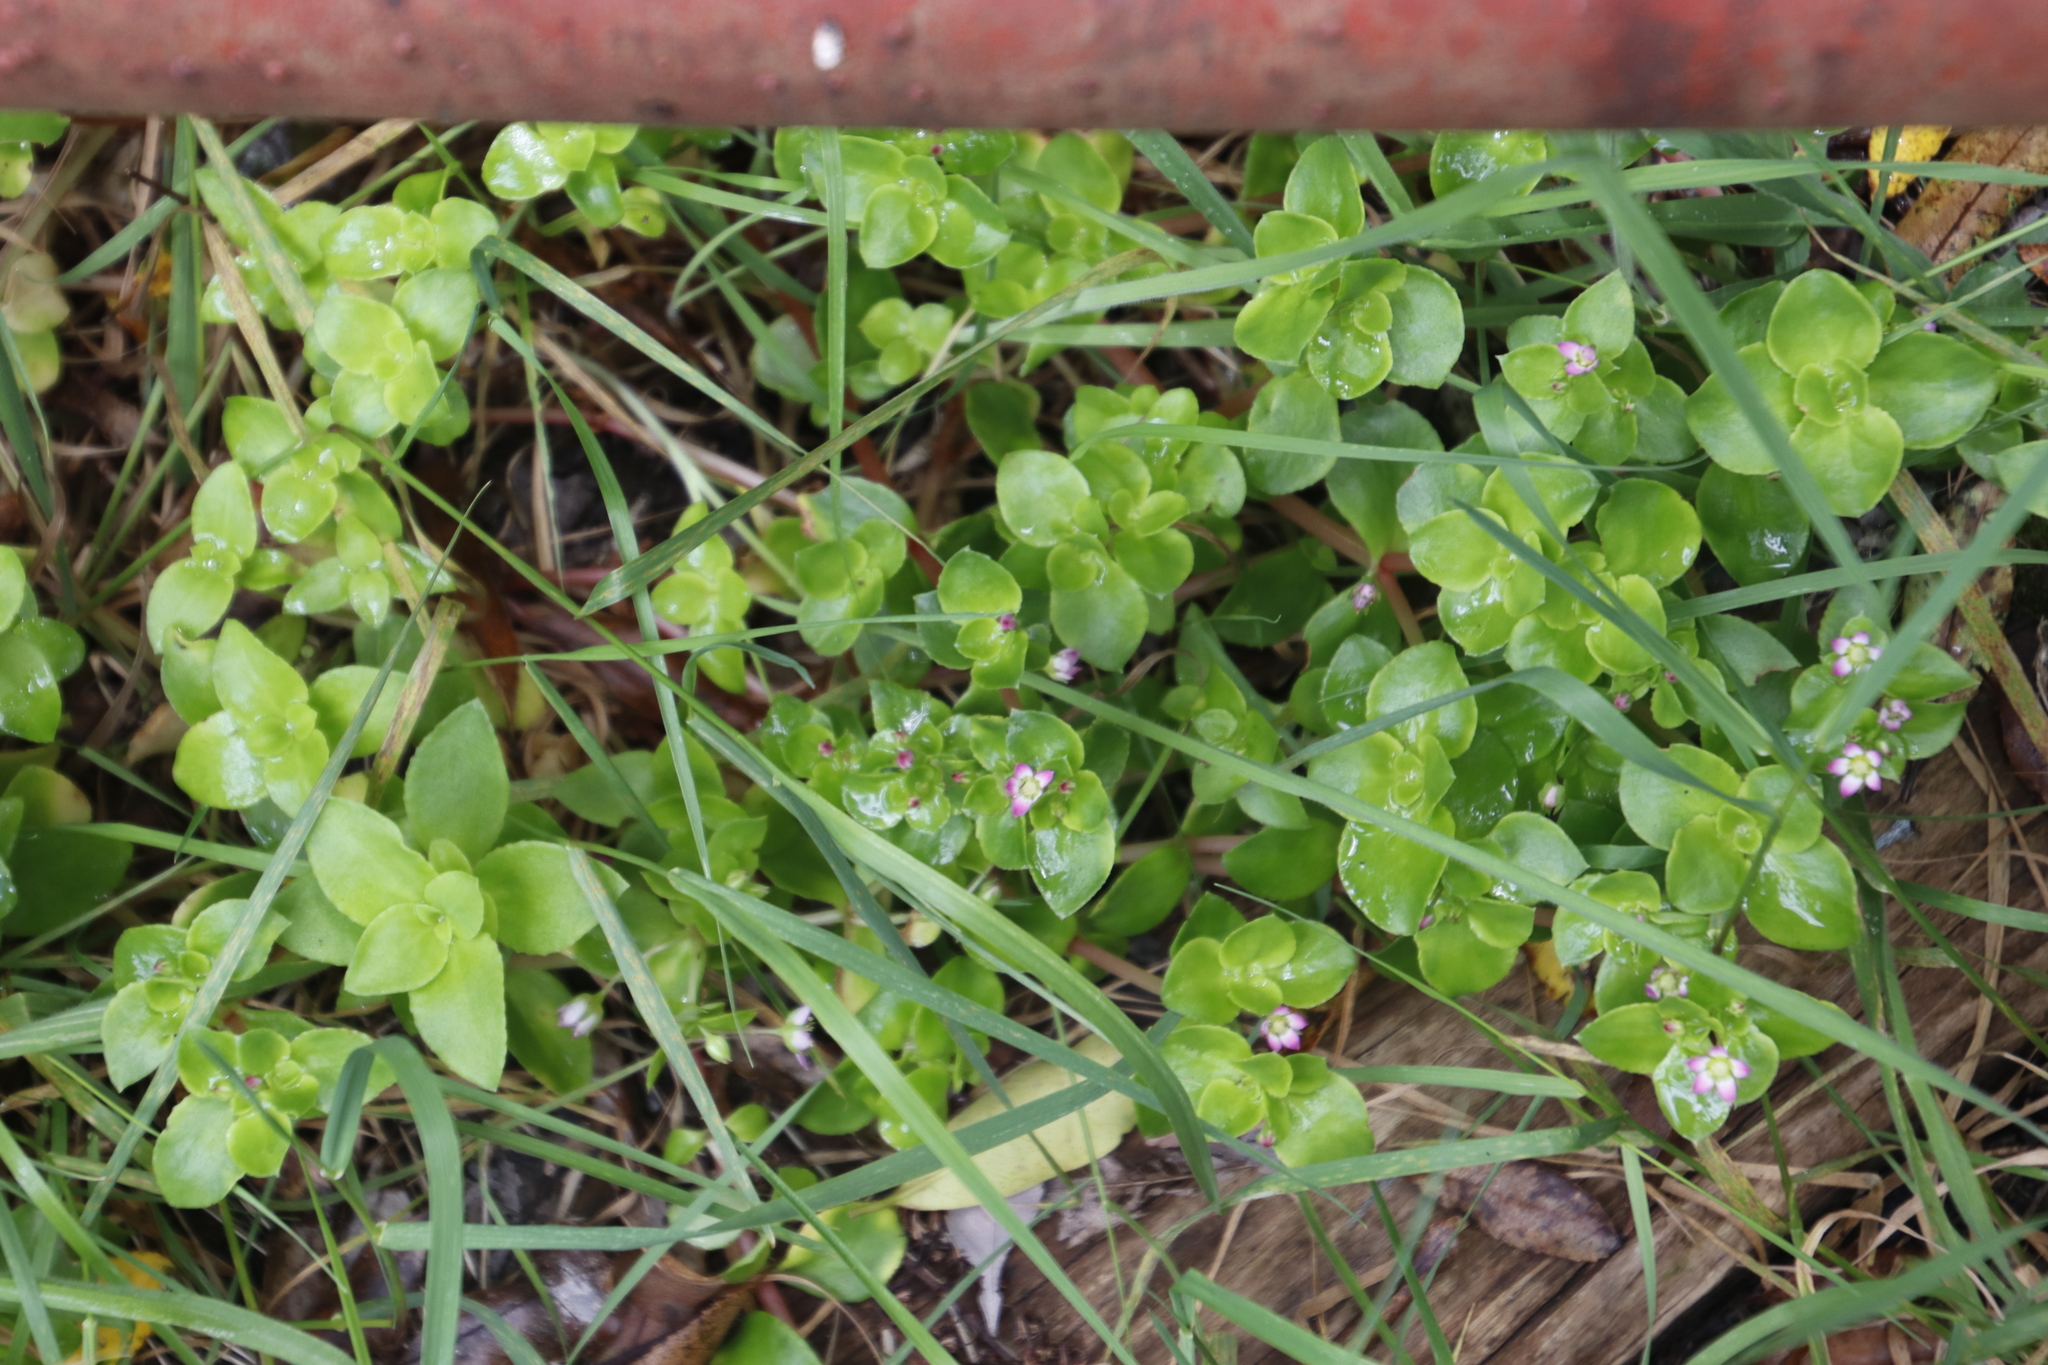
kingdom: Plantae
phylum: Tracheophyta
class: Magnoliopsida
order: Saxifragales
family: Crassulaceae
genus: Crassula
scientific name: Crassula pellucida
